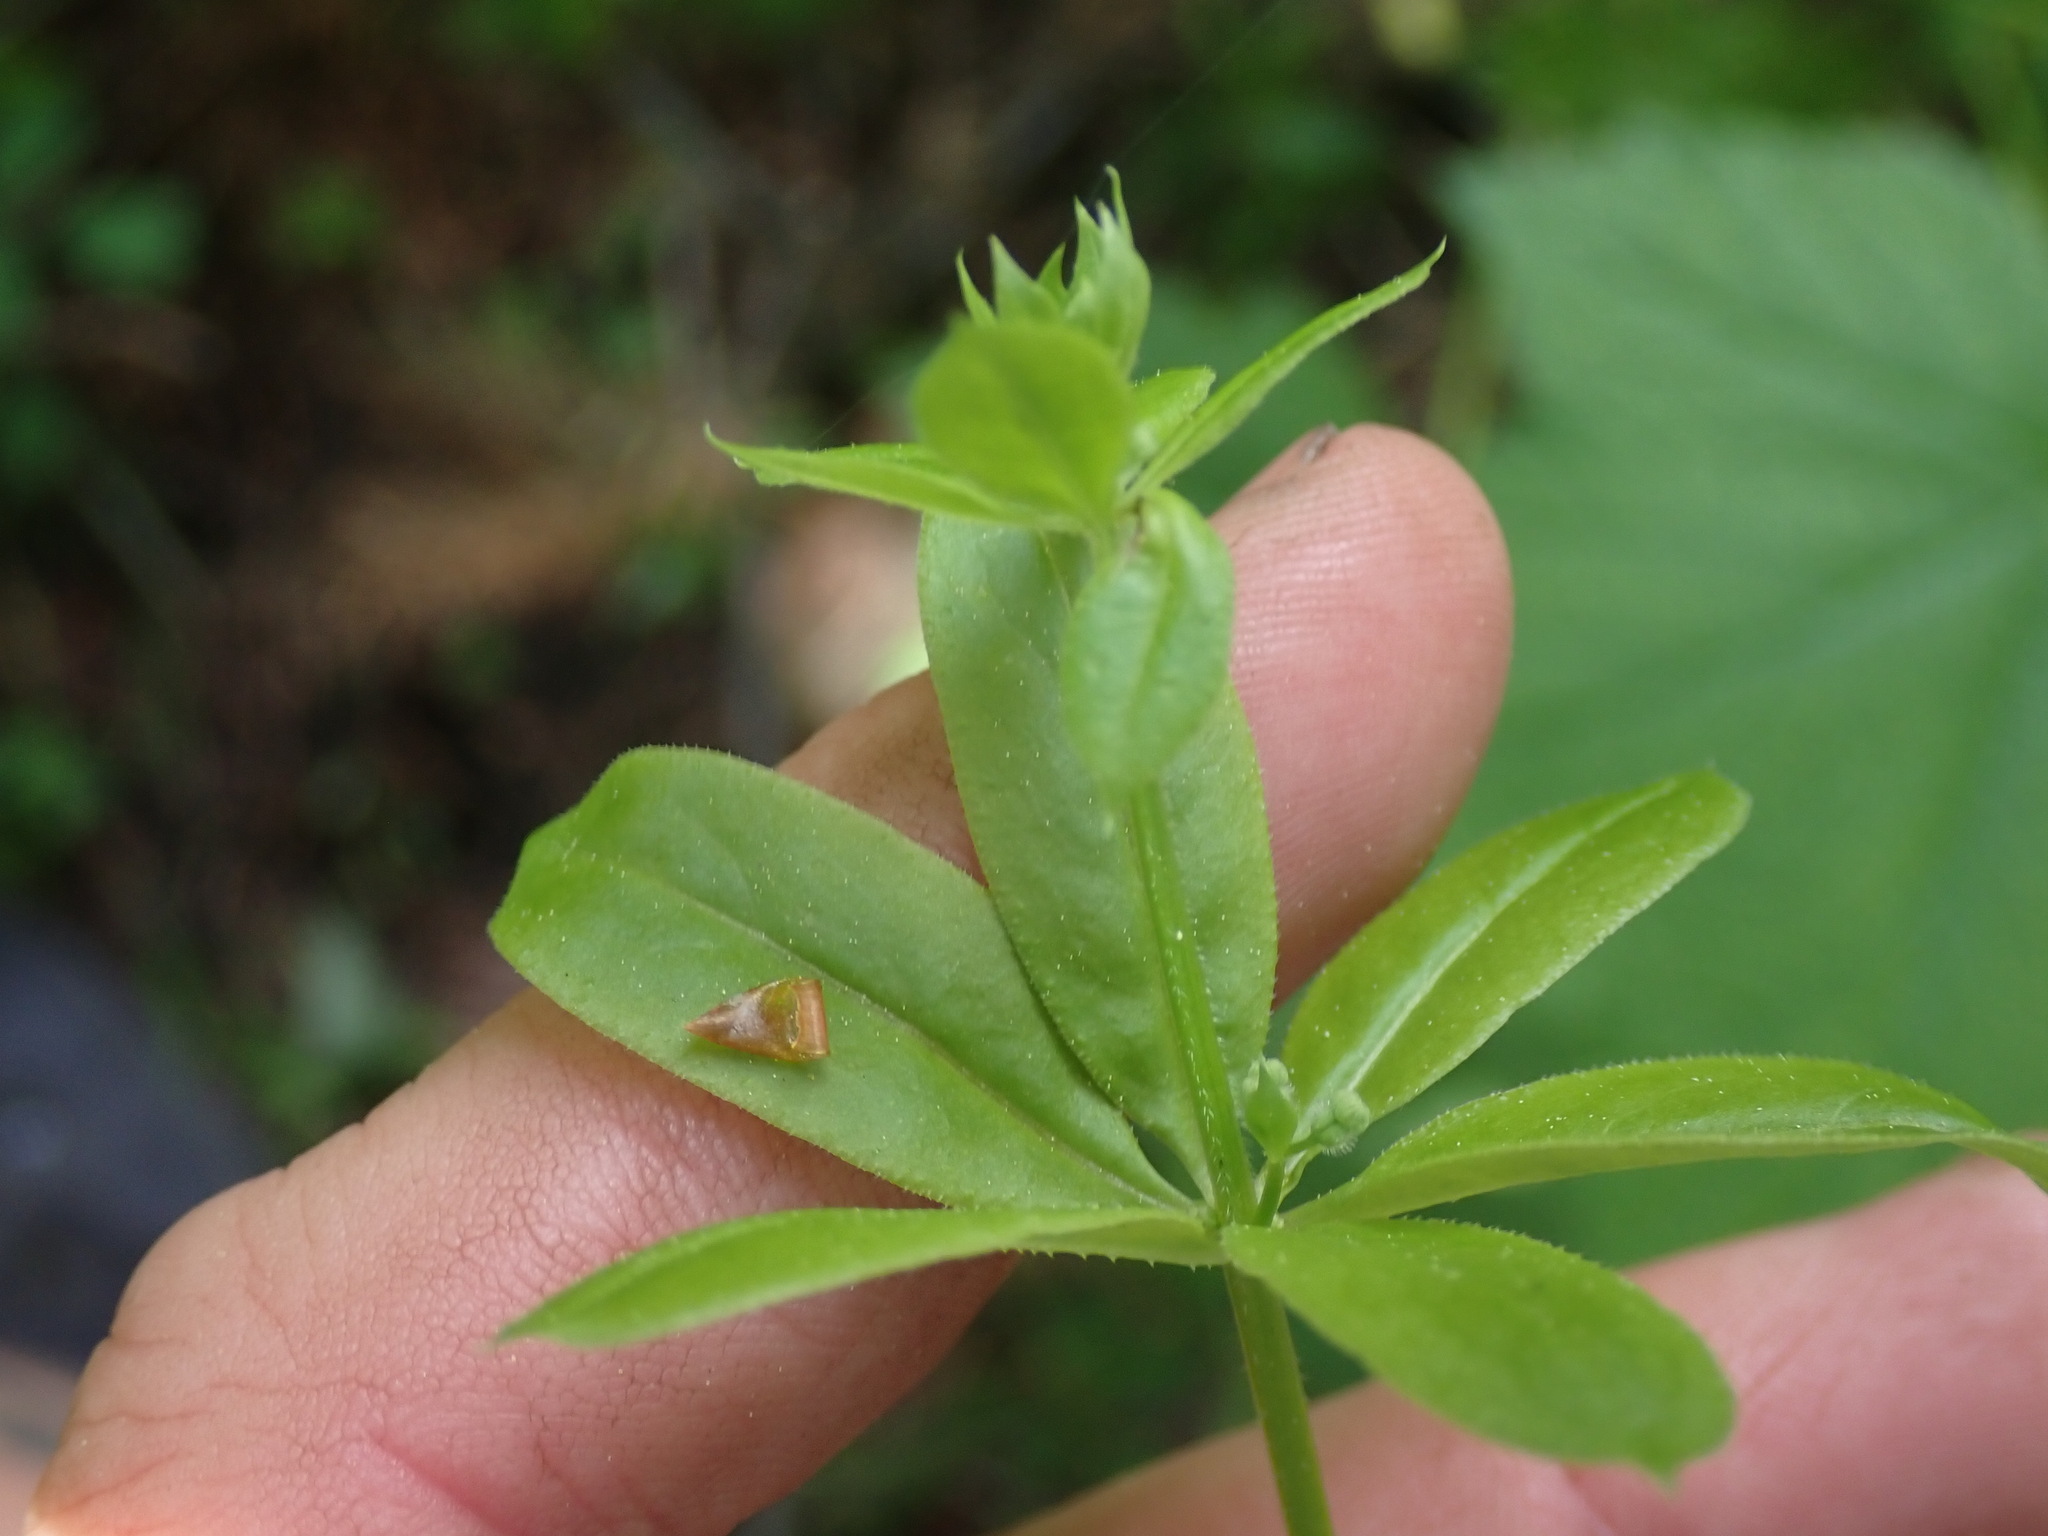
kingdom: Plantae
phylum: Tracheophyta
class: Magnoliopsida
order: Gentianales
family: Rubiaceae
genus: Galium
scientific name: Galium triflorum
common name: Fragrant bedstraw
